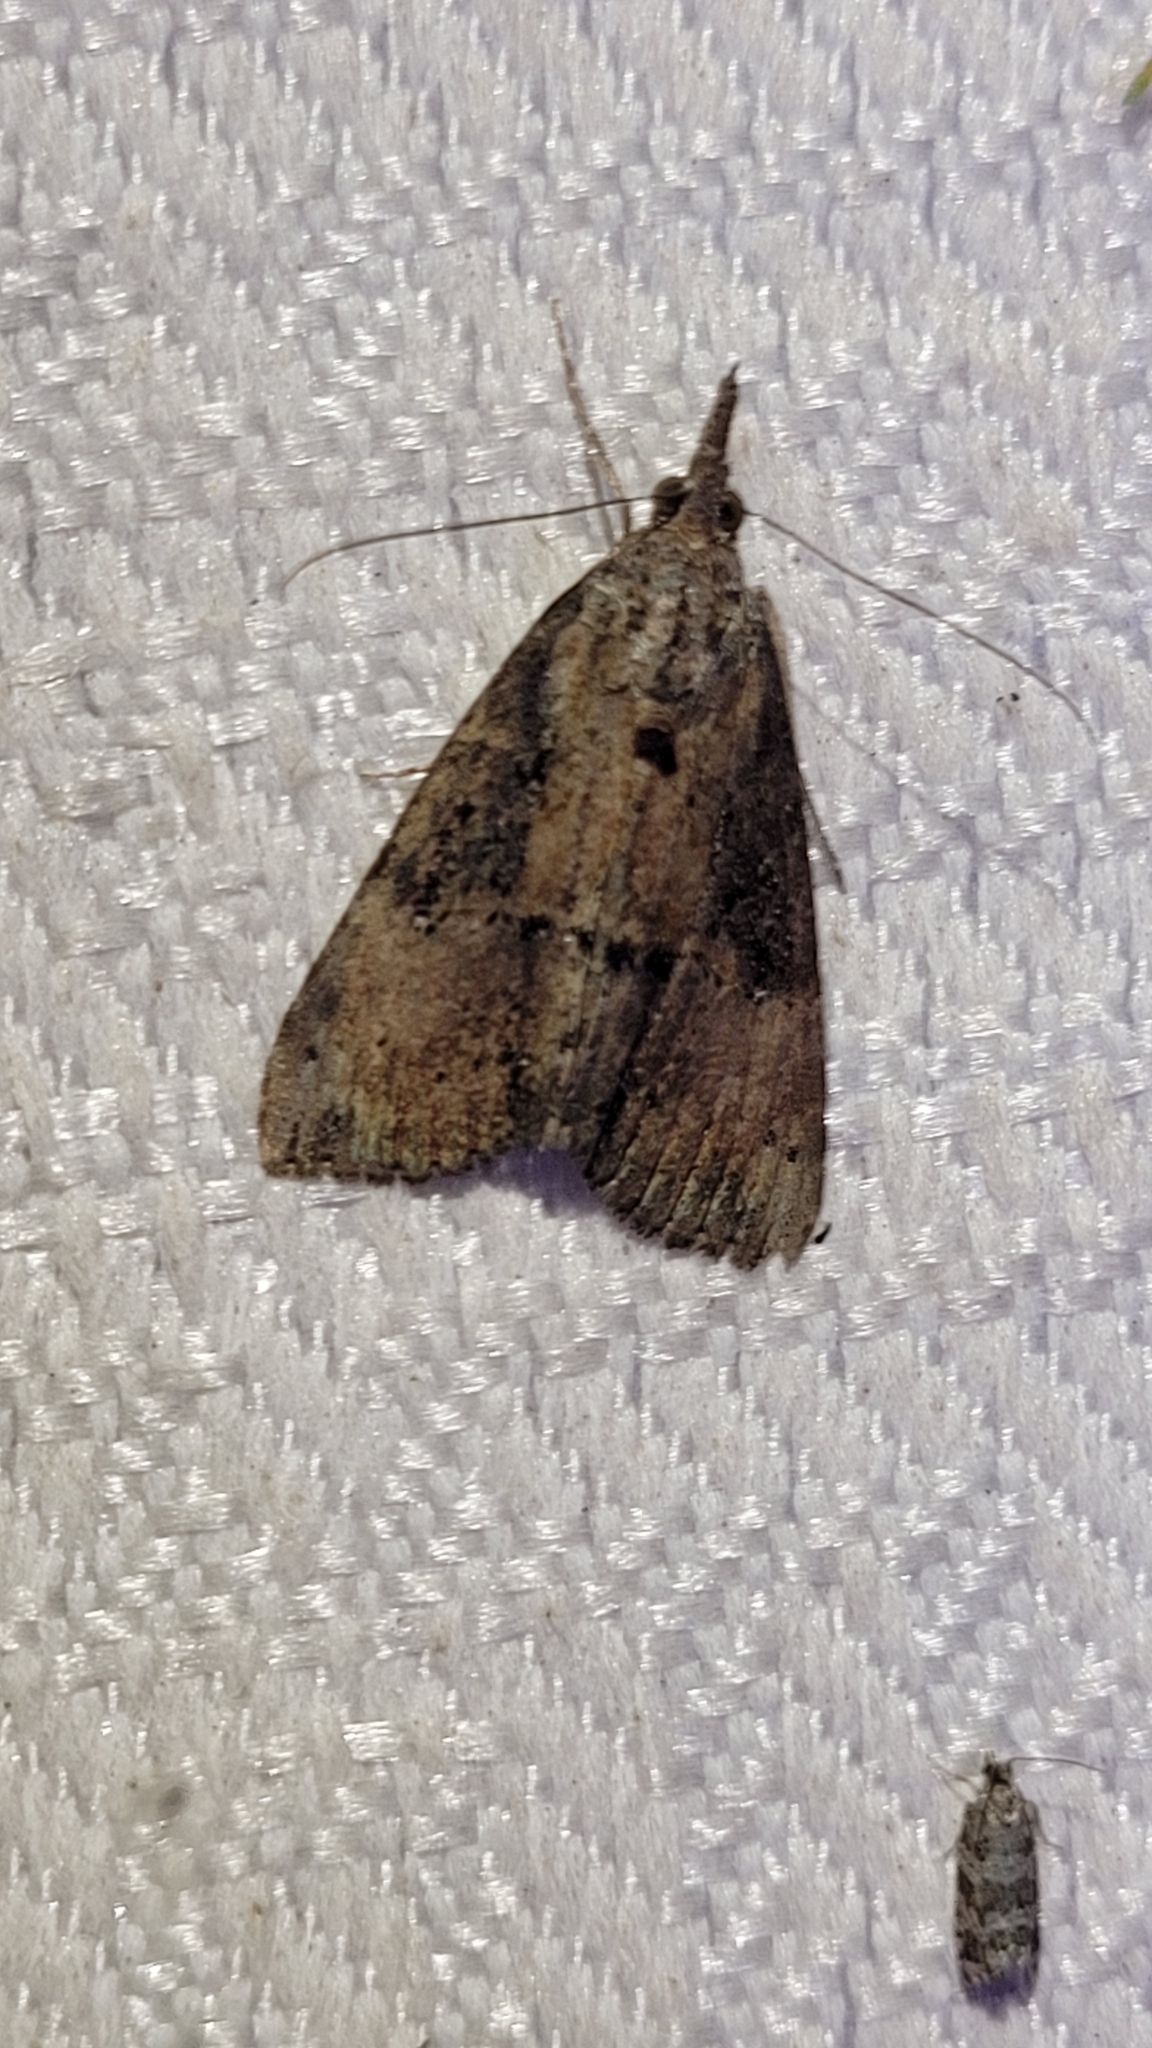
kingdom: Animalia
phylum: Arthropoda
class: Insecta
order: Lepidoptera
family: Erebidae
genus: Hypena
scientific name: Hypena scabra
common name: Green cloverworm
